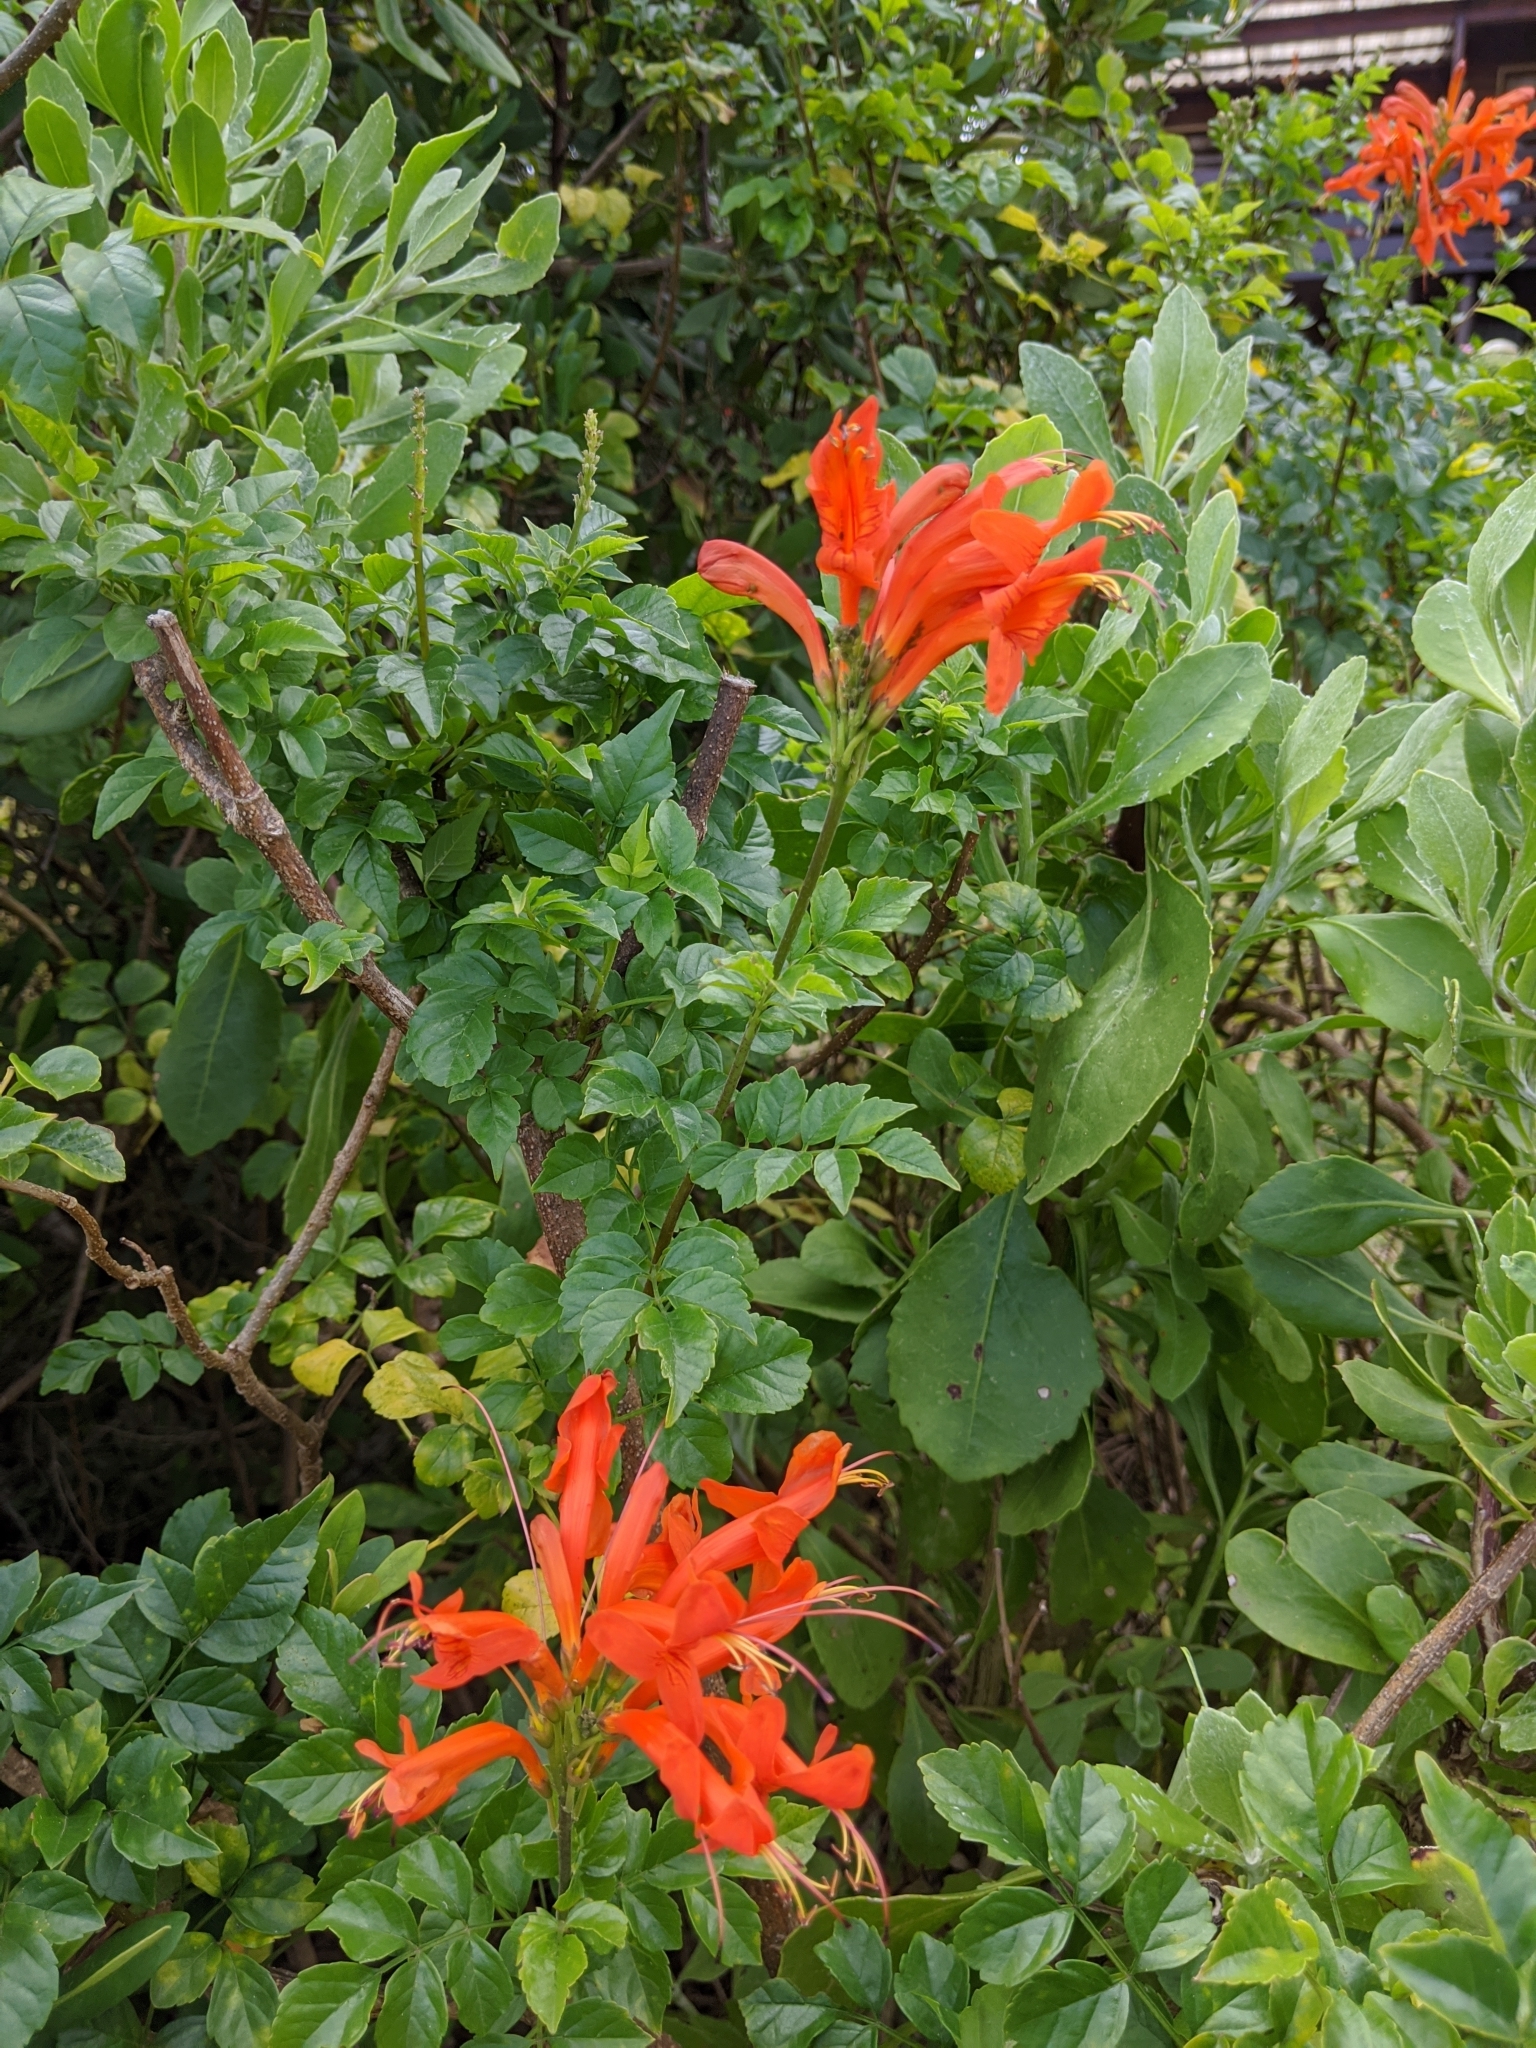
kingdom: Plantae
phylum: Tracheophyta
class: Magnoliopsida
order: Lamiales
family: Bignoniaceae
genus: Tecomaria
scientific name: Tecomaria capensis
